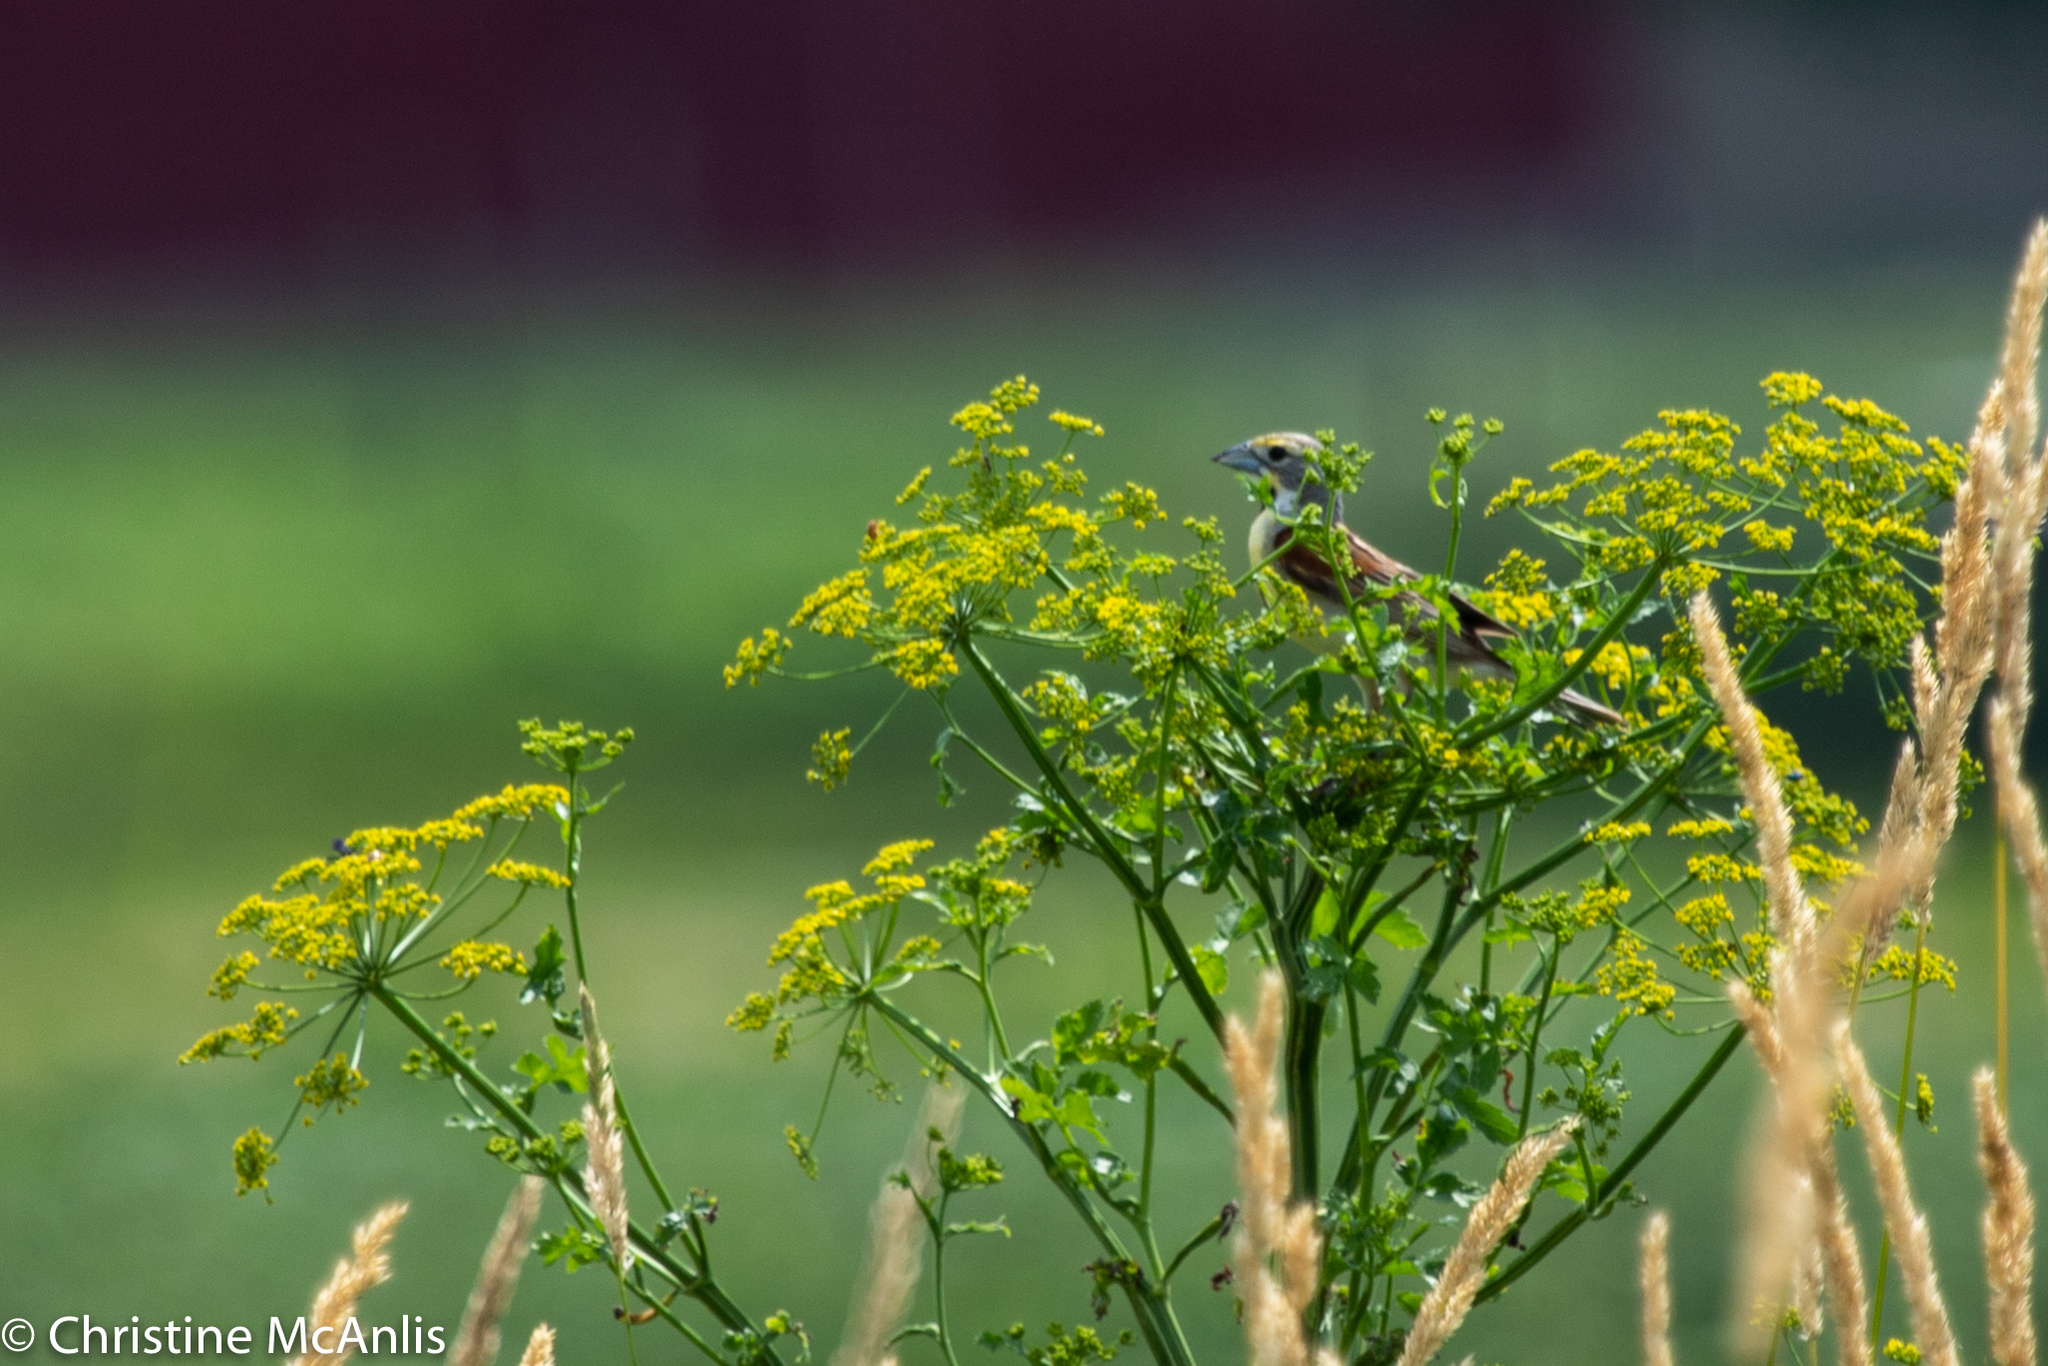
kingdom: Animalia
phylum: Chordata
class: Aves
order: Passeriformes
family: Cardinalidae
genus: Spiza
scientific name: Spiza americana
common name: Dickcissel
